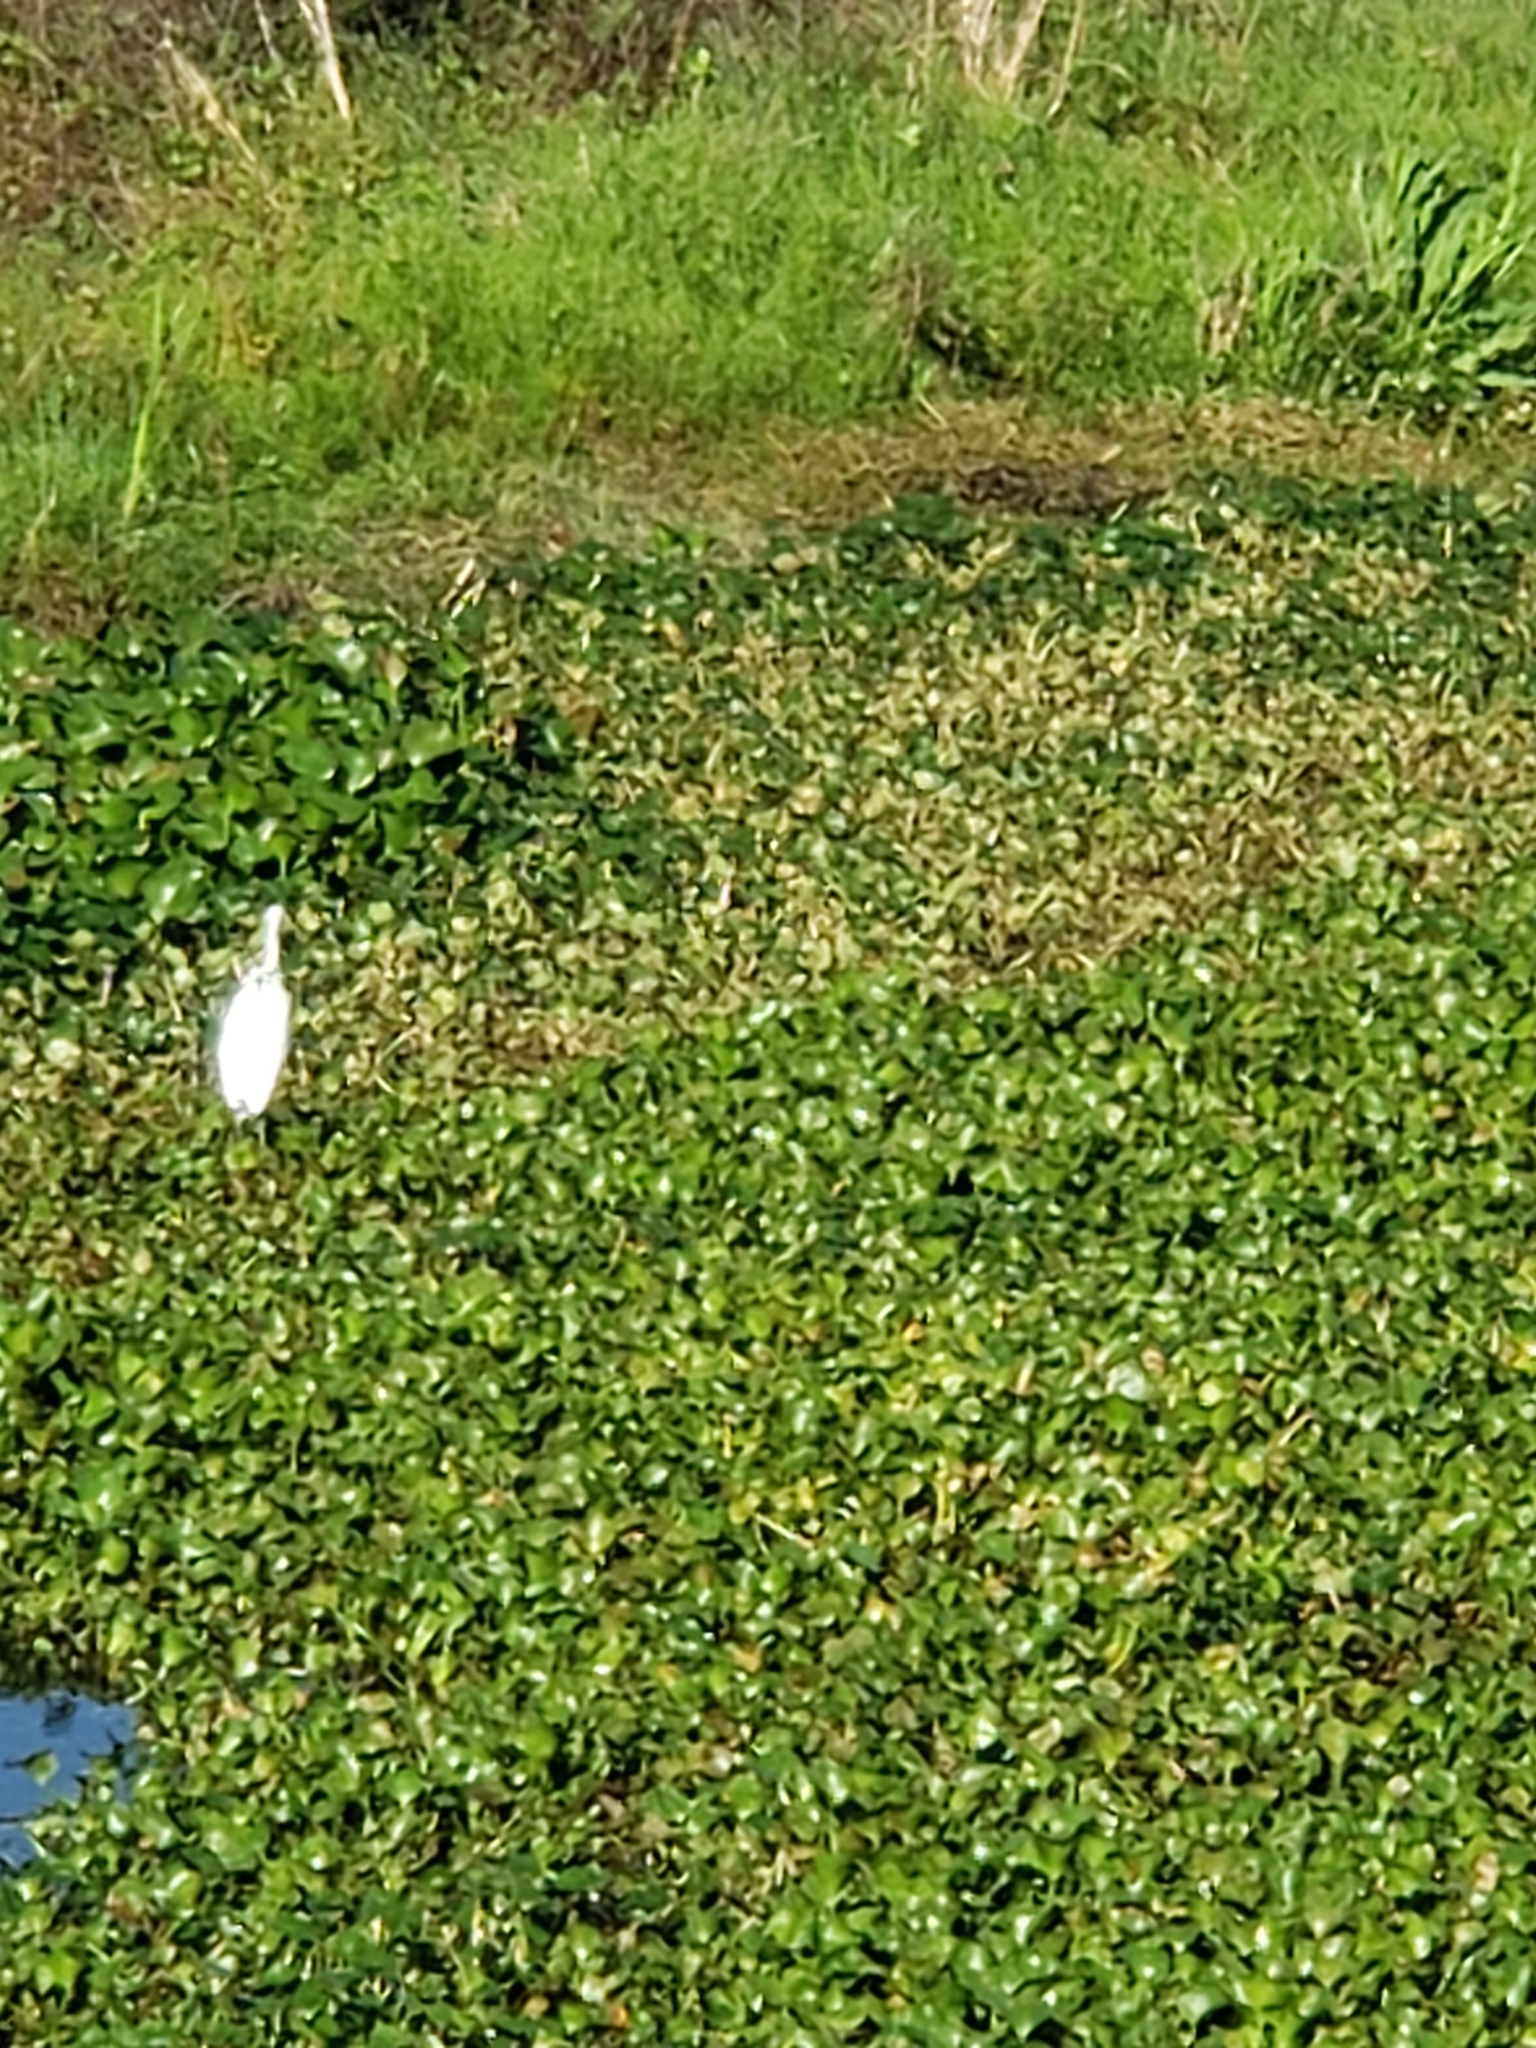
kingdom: Animalia
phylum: Chordata
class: Aves
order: Pelecaniformes
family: Ardeidae
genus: Egretta
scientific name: Egretta caerulea
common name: Little blue heron
